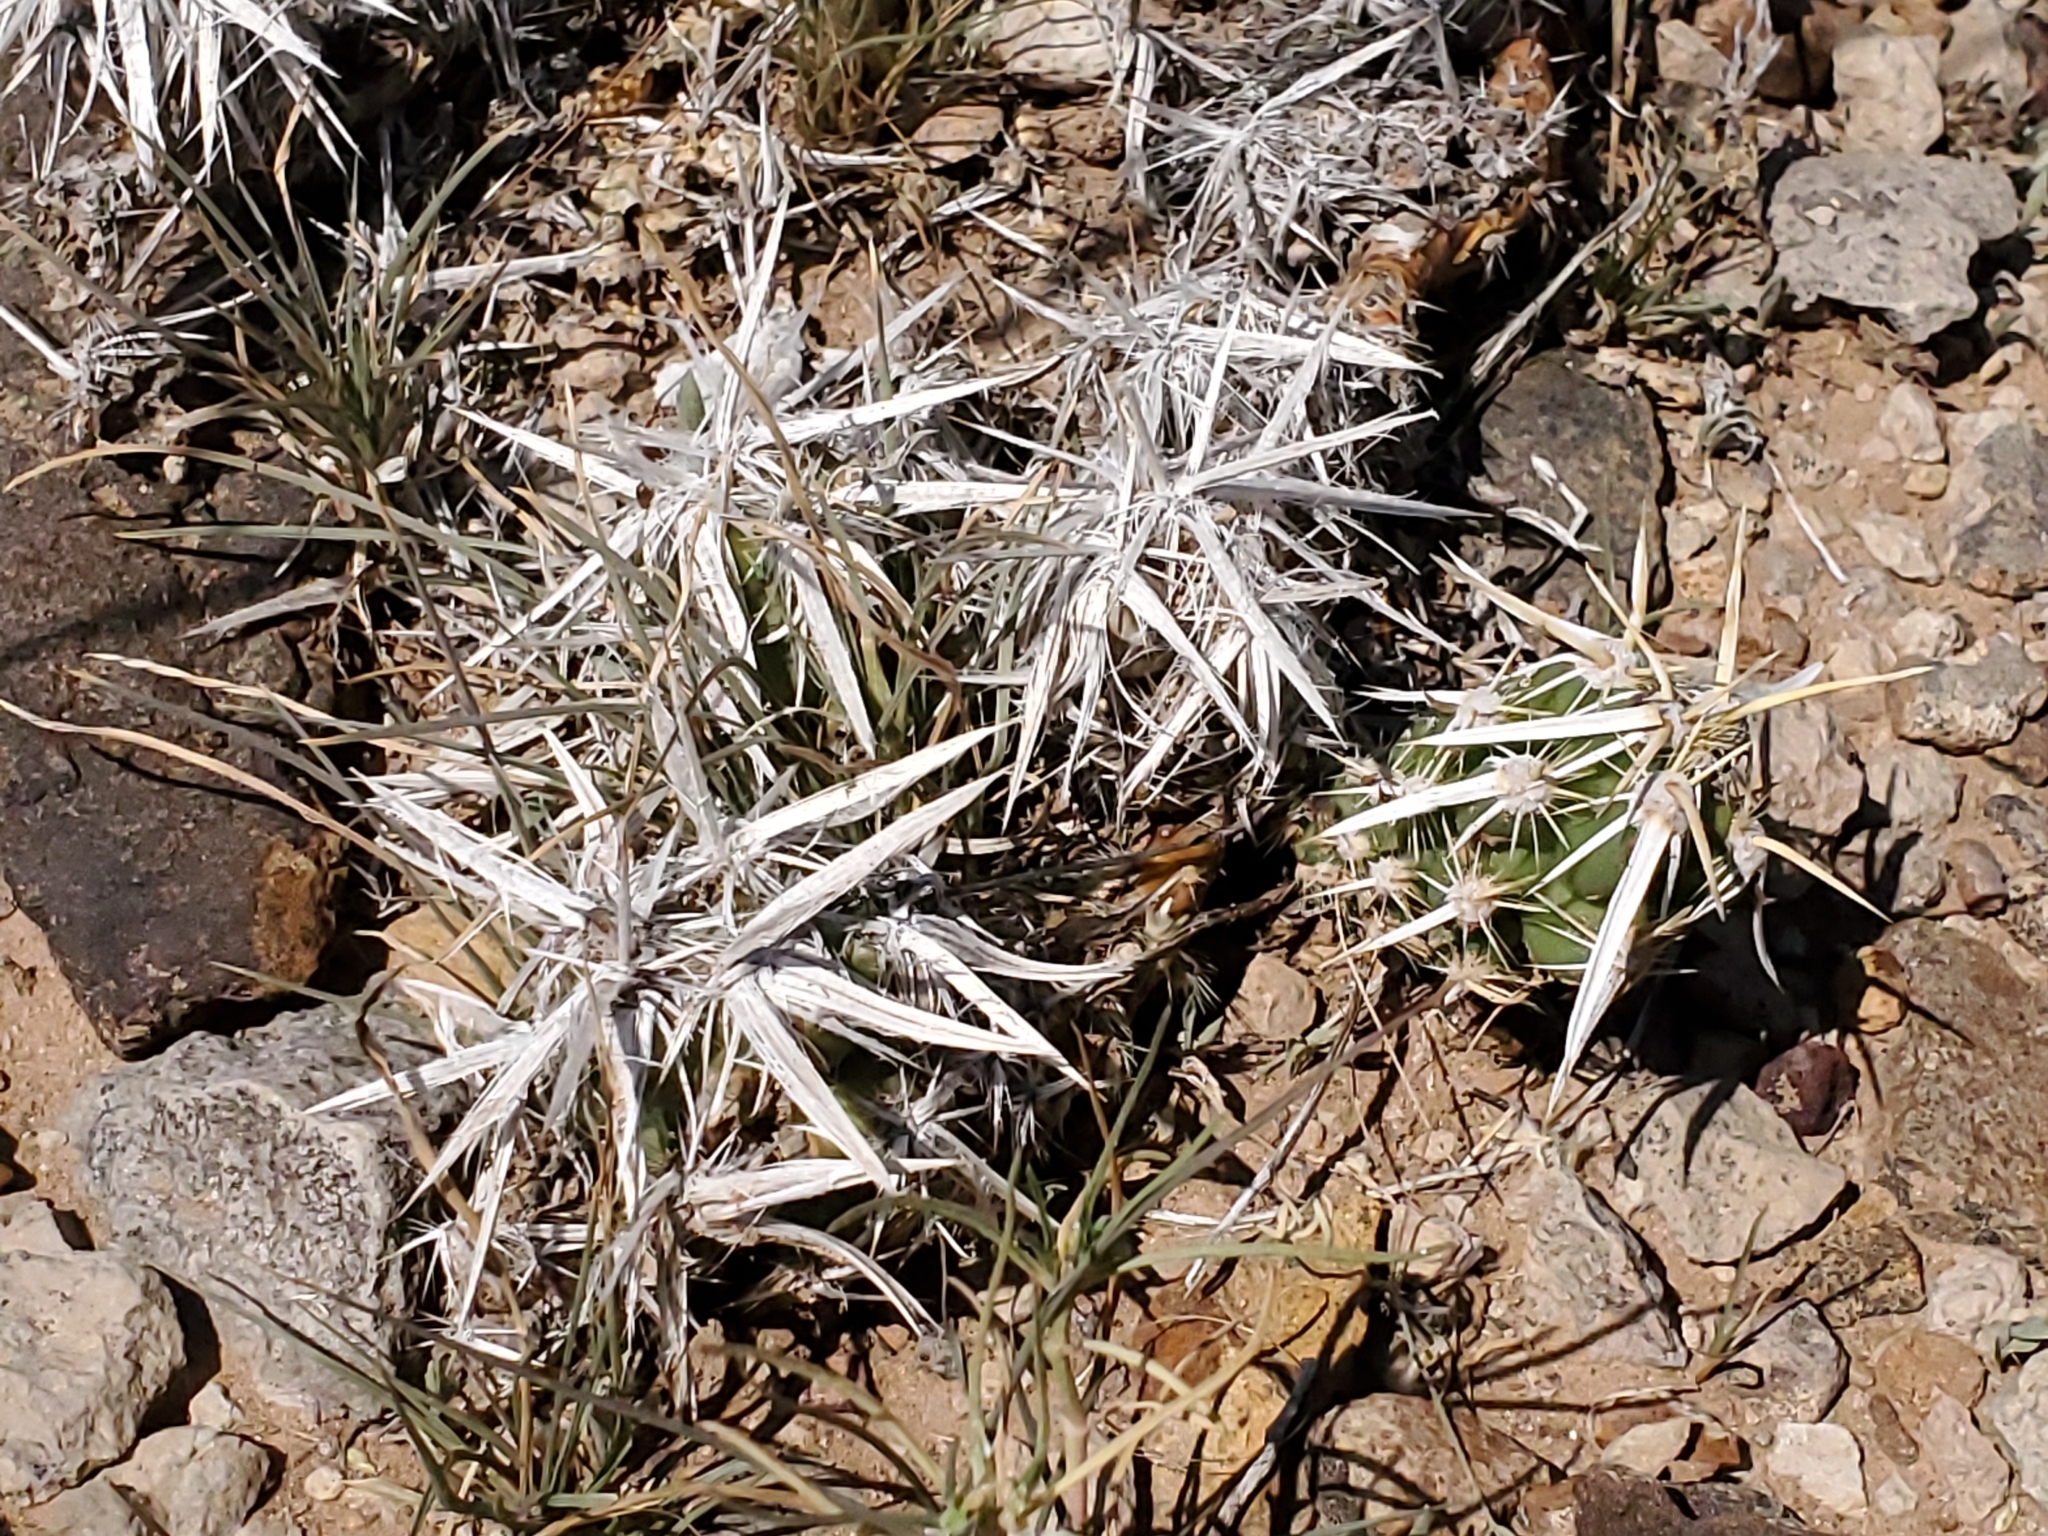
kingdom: Plantae
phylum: Tracheophyta
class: Magnoliopsida
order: Caryophyllales
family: Cactaceae
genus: Grusonia
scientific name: Grusonia clavata
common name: Club cholla
